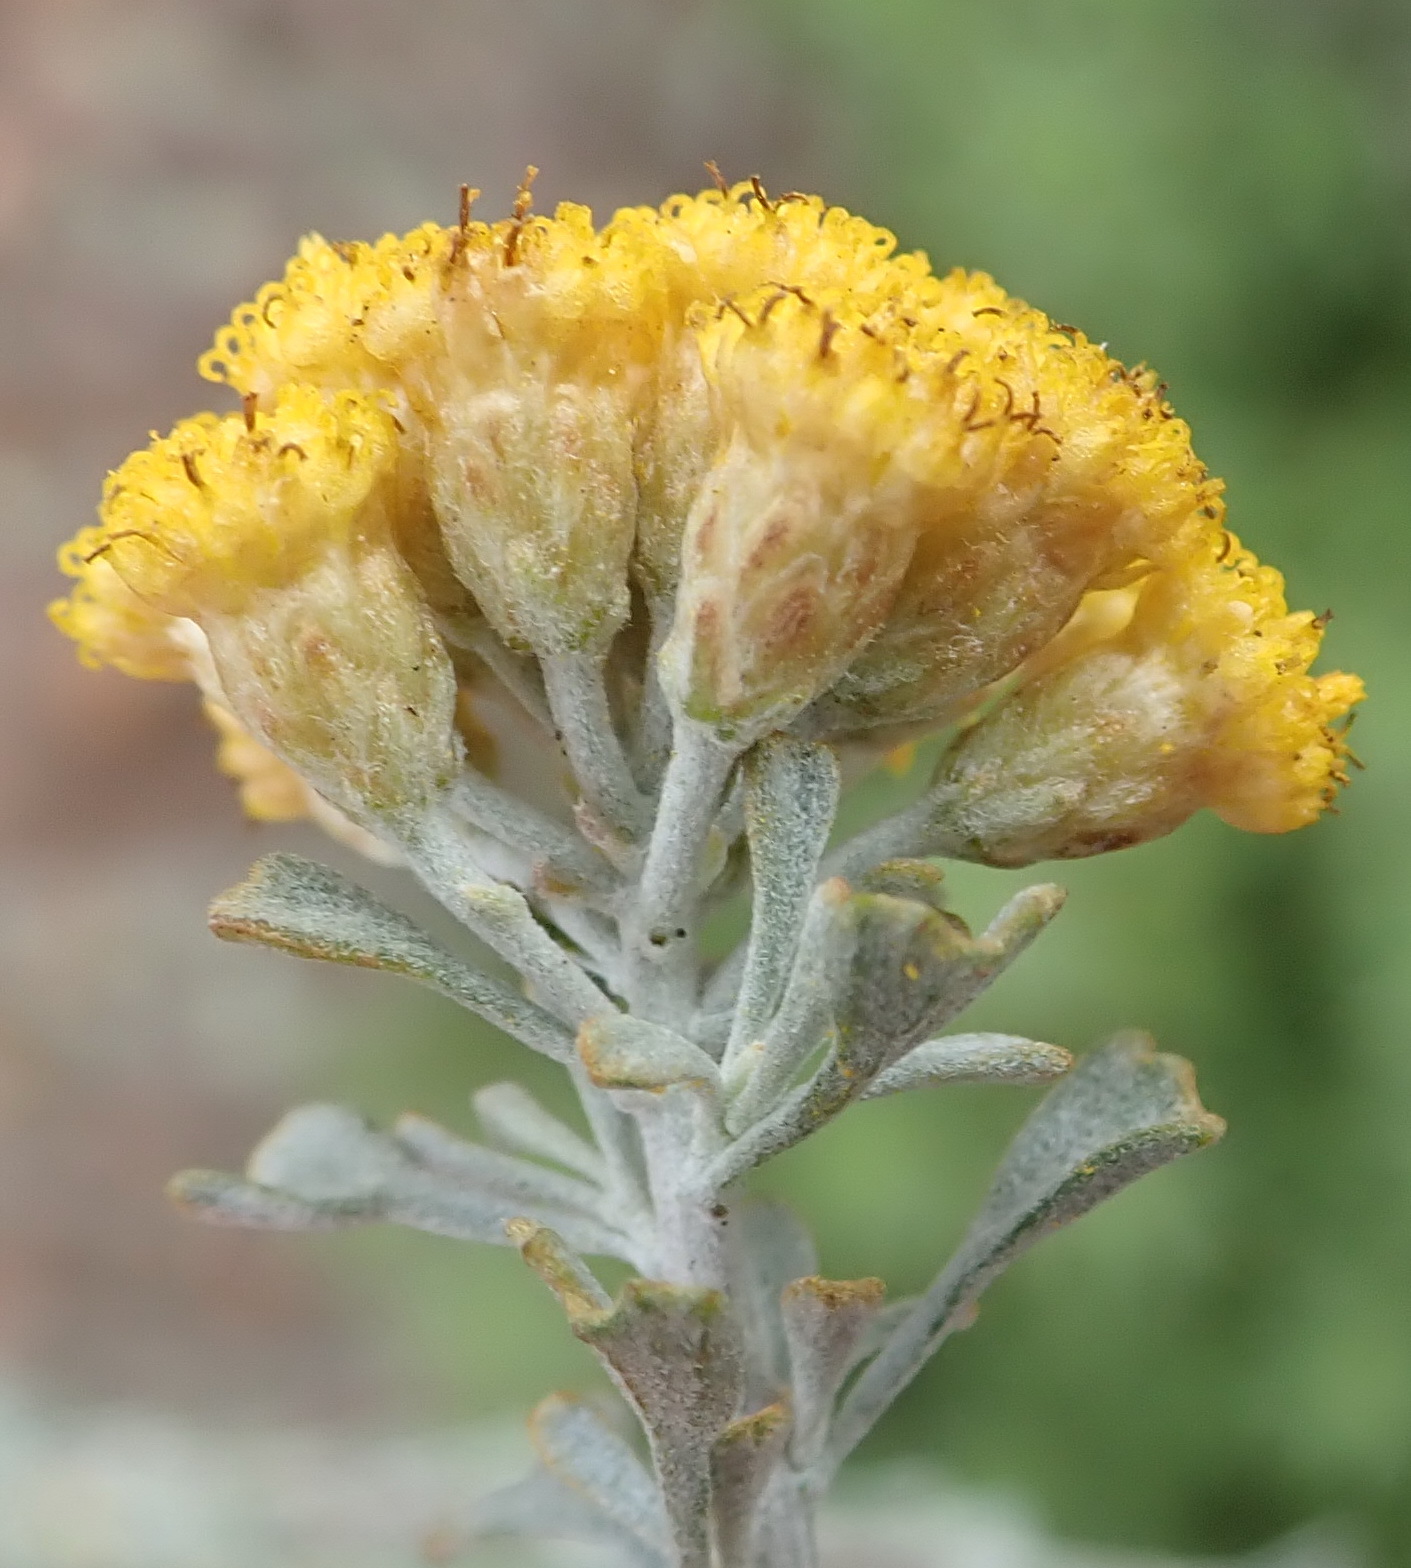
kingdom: Plantae
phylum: Tracheophyta
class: Magnoliopsida
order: Asterales
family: Asteraceae
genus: Pentzia
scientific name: Pentzia dentata
